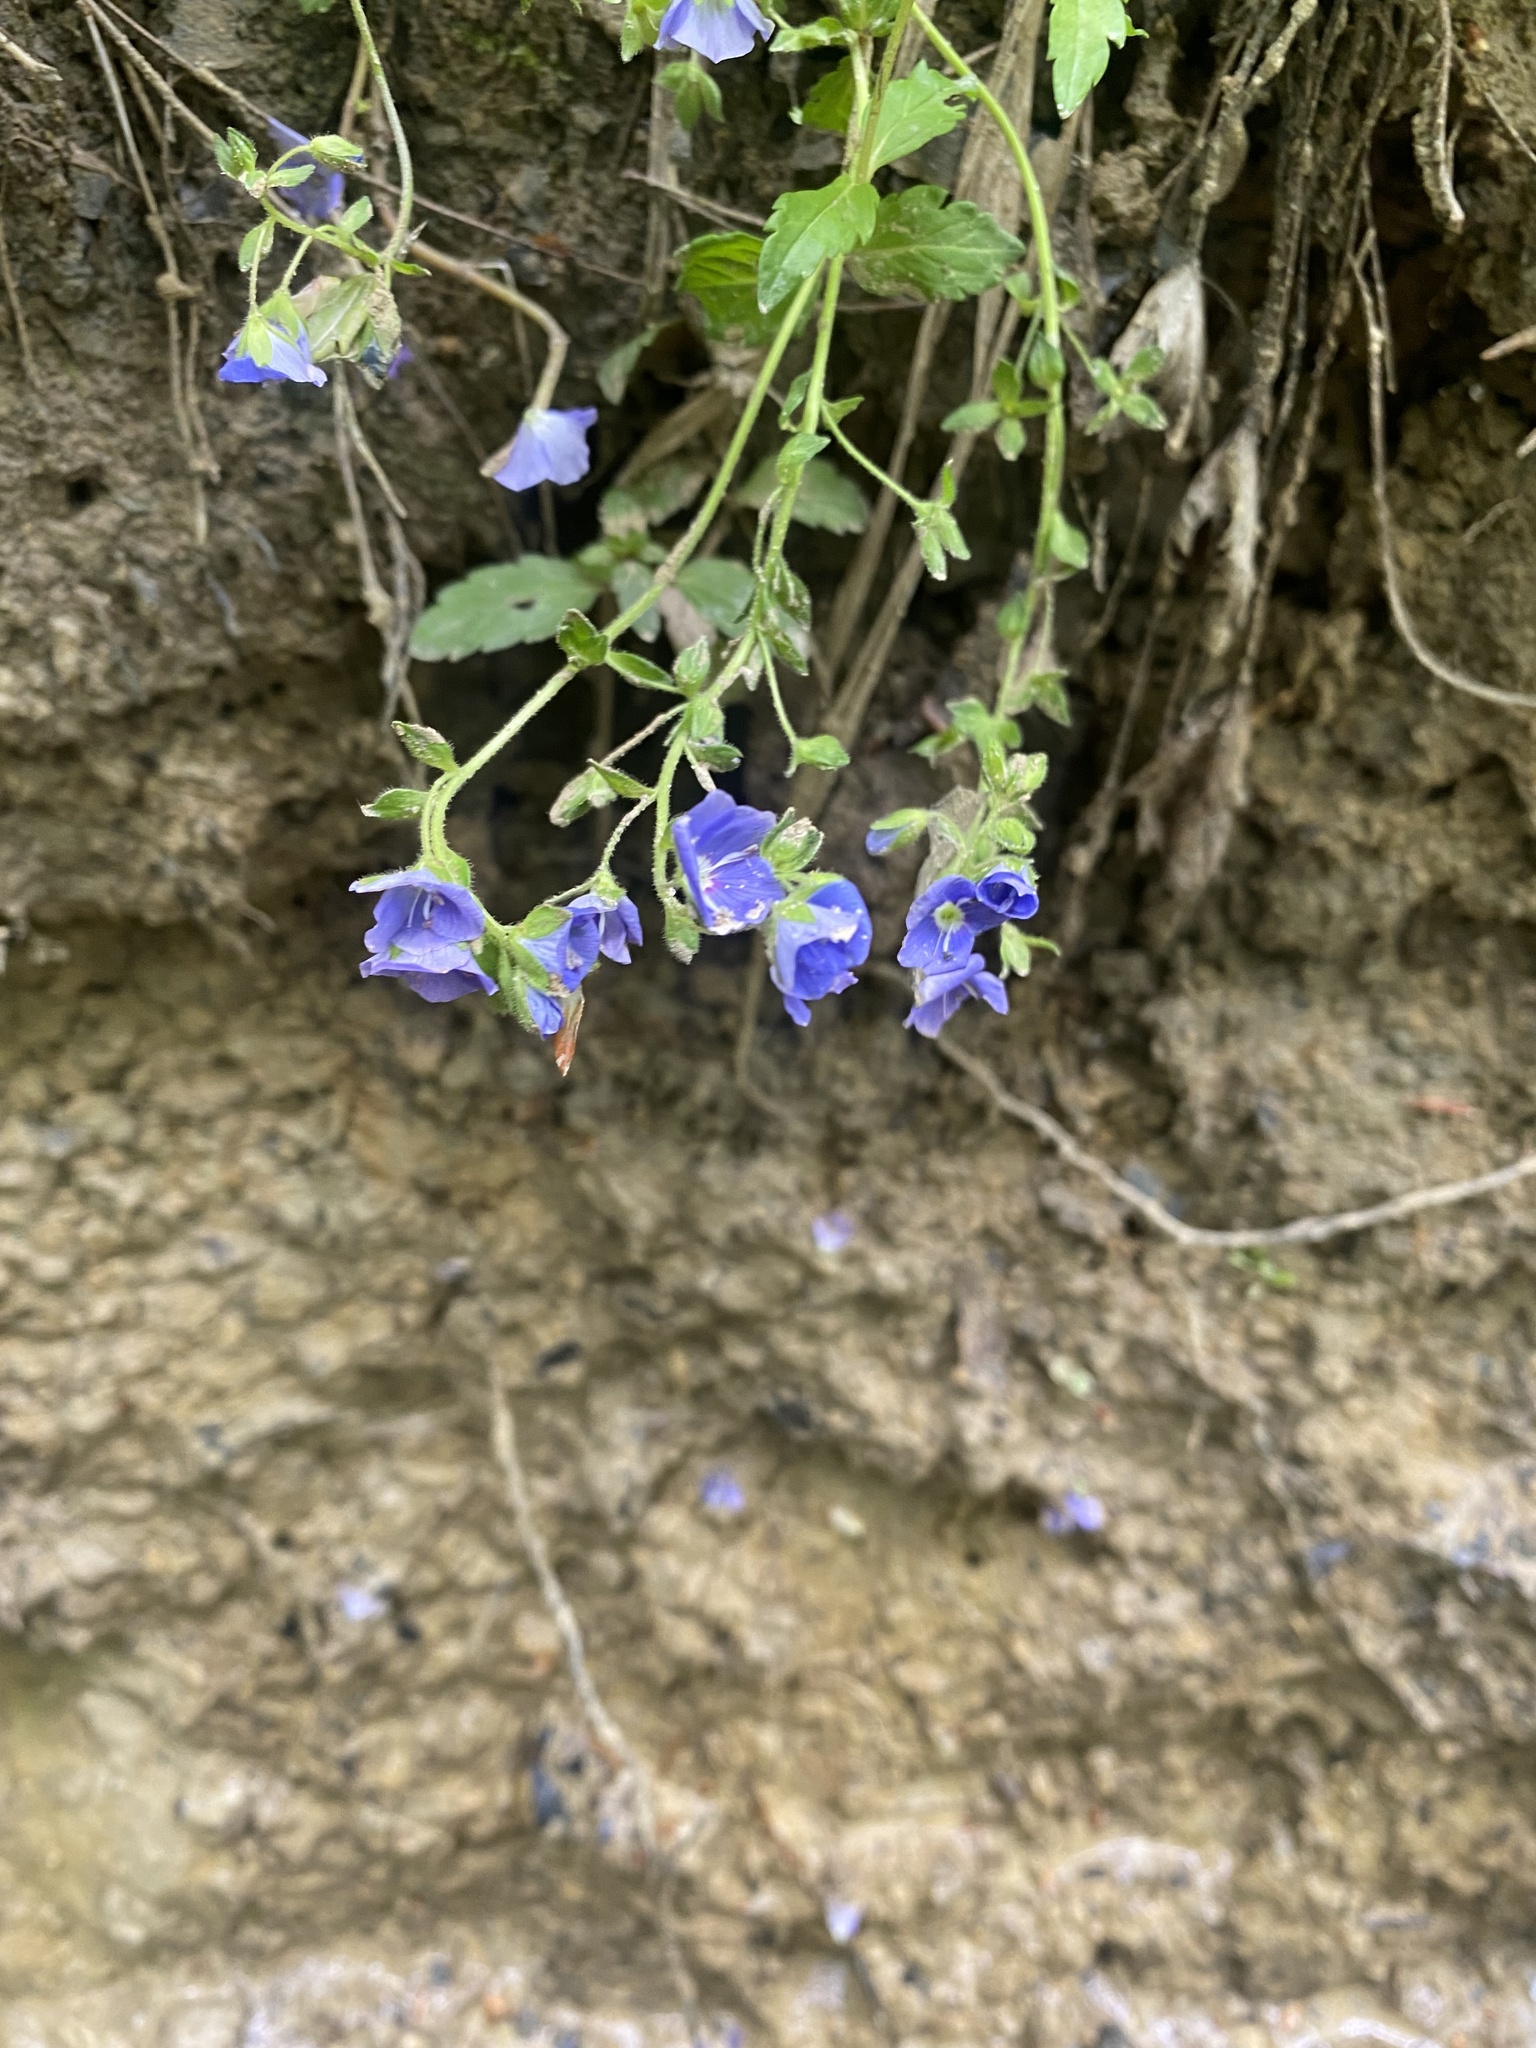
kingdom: Plantae
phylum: Tracheophyta
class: Magnoliopsida
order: Lamiales
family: Plantaginaceae
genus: Veronica
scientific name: Veronica
